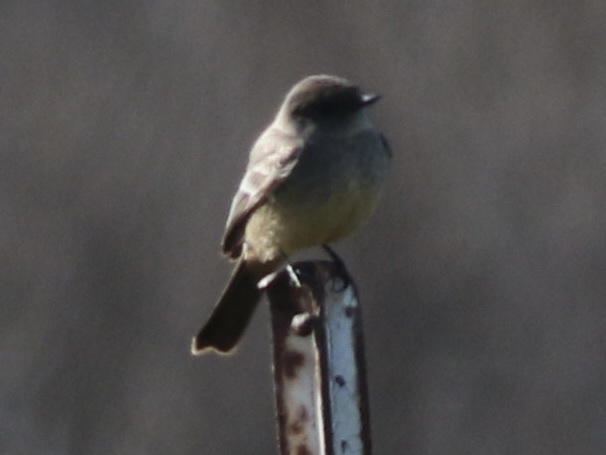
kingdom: Animalia
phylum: Chordata
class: Aves
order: Passeriformes
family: Tyrannidae
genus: Sayornis
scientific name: Sayornis saya
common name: Say's phoebe
